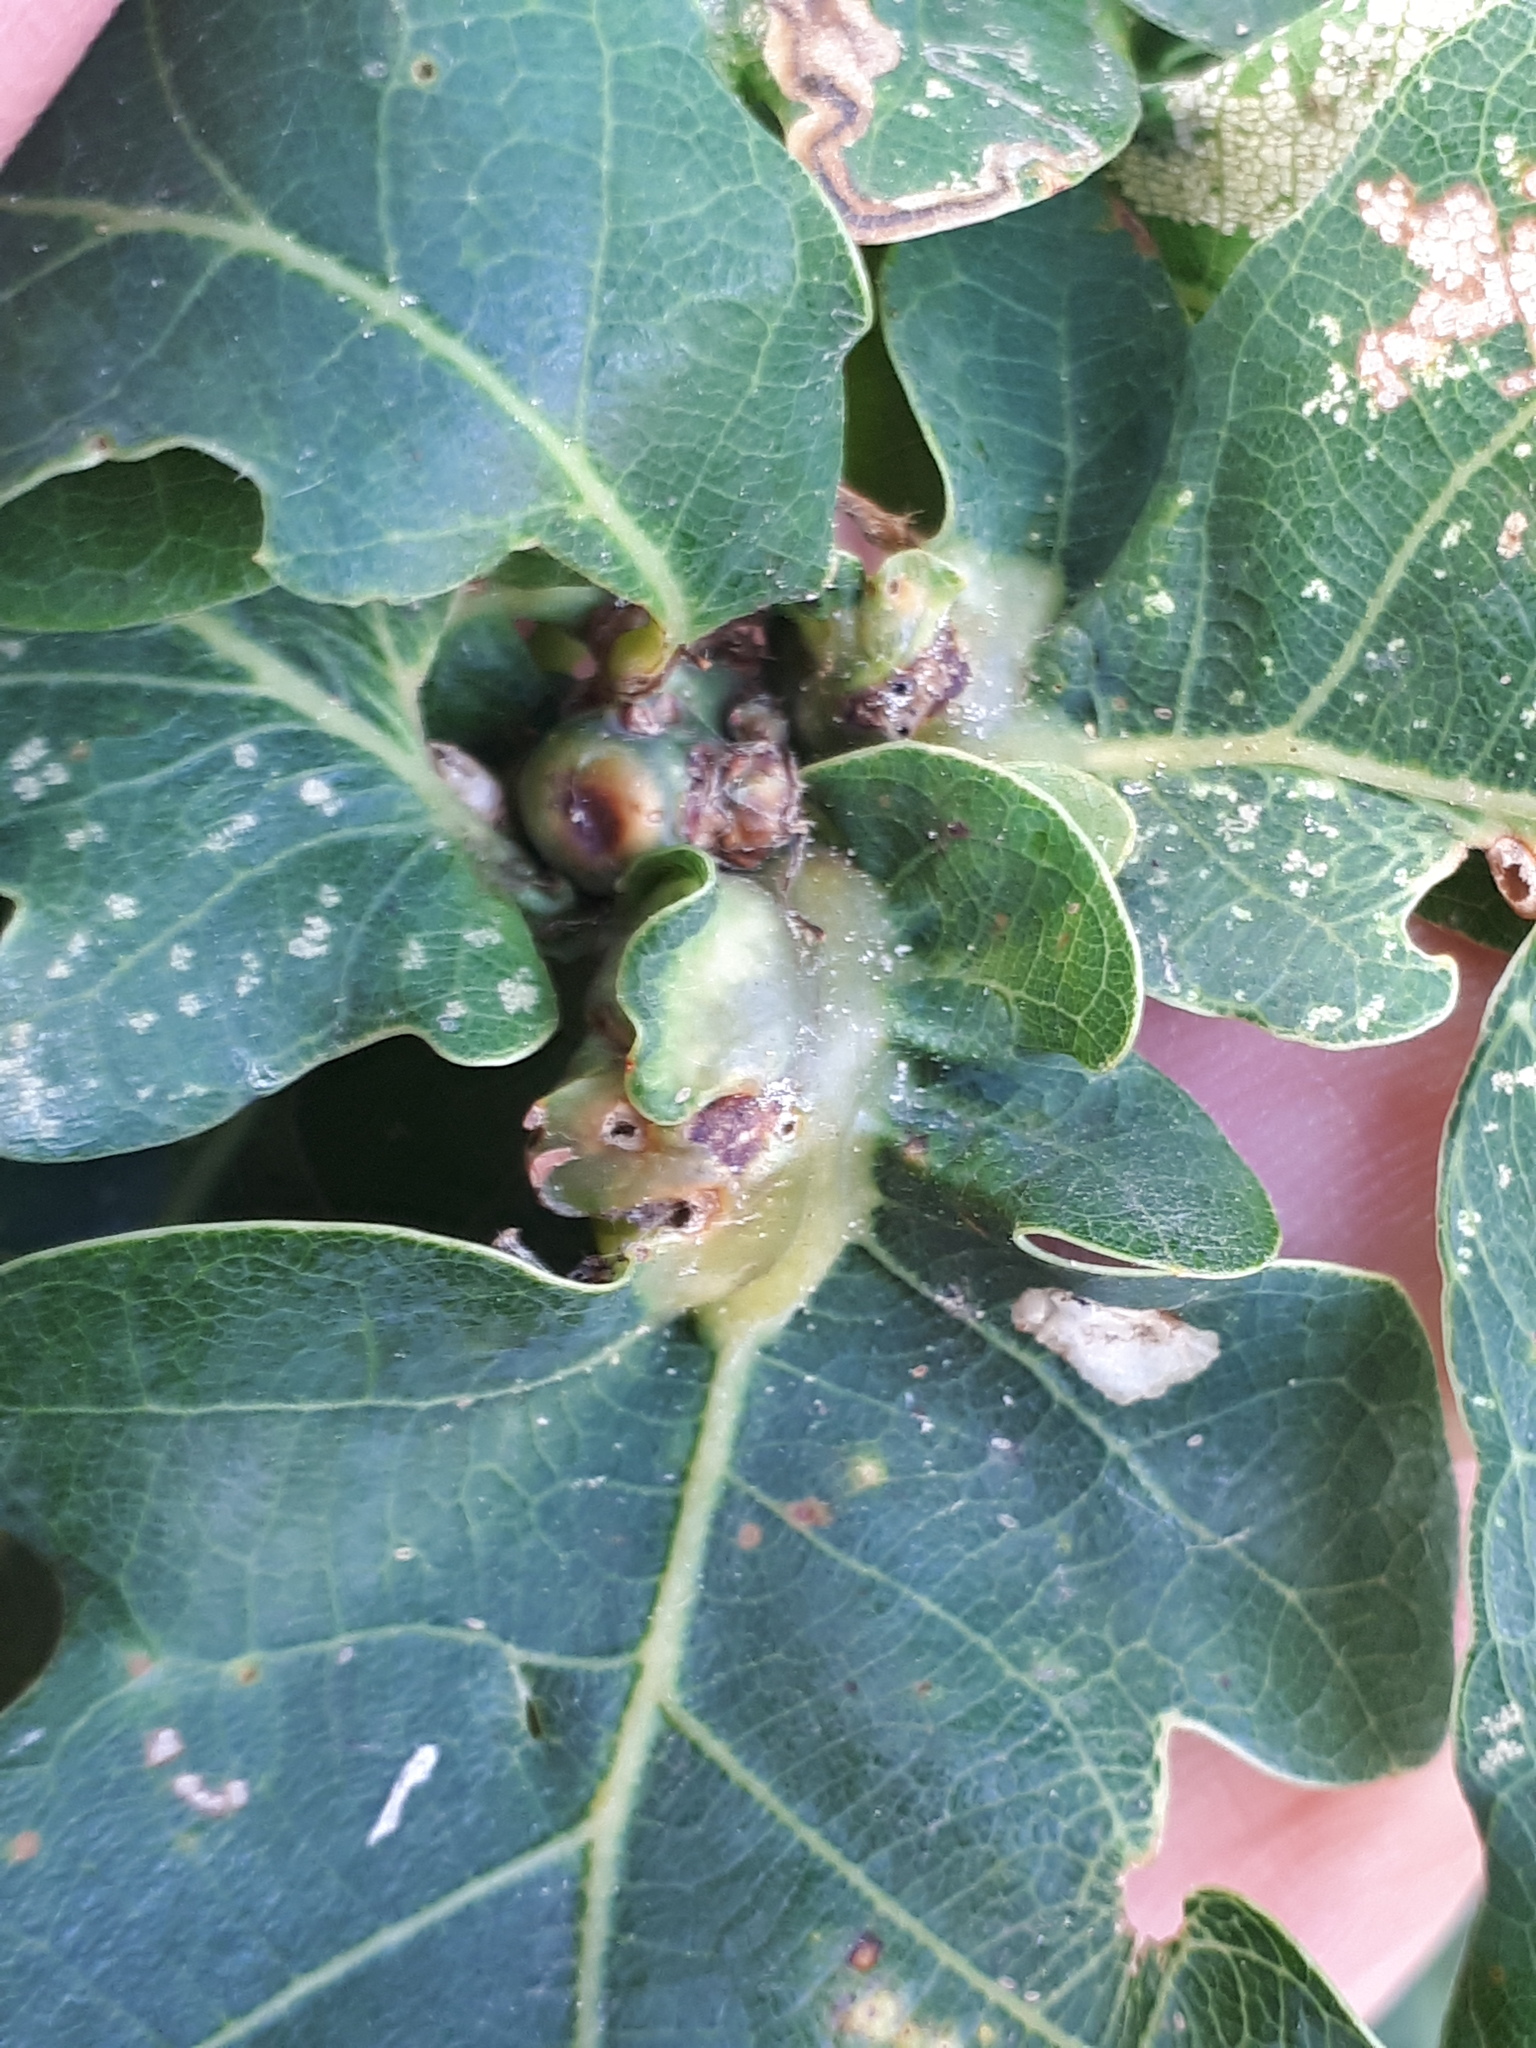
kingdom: Animalia
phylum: Arthropoda
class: Insecta
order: Hymenoptera
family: Cynipidae
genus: Andricus
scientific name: Andricus curvator
